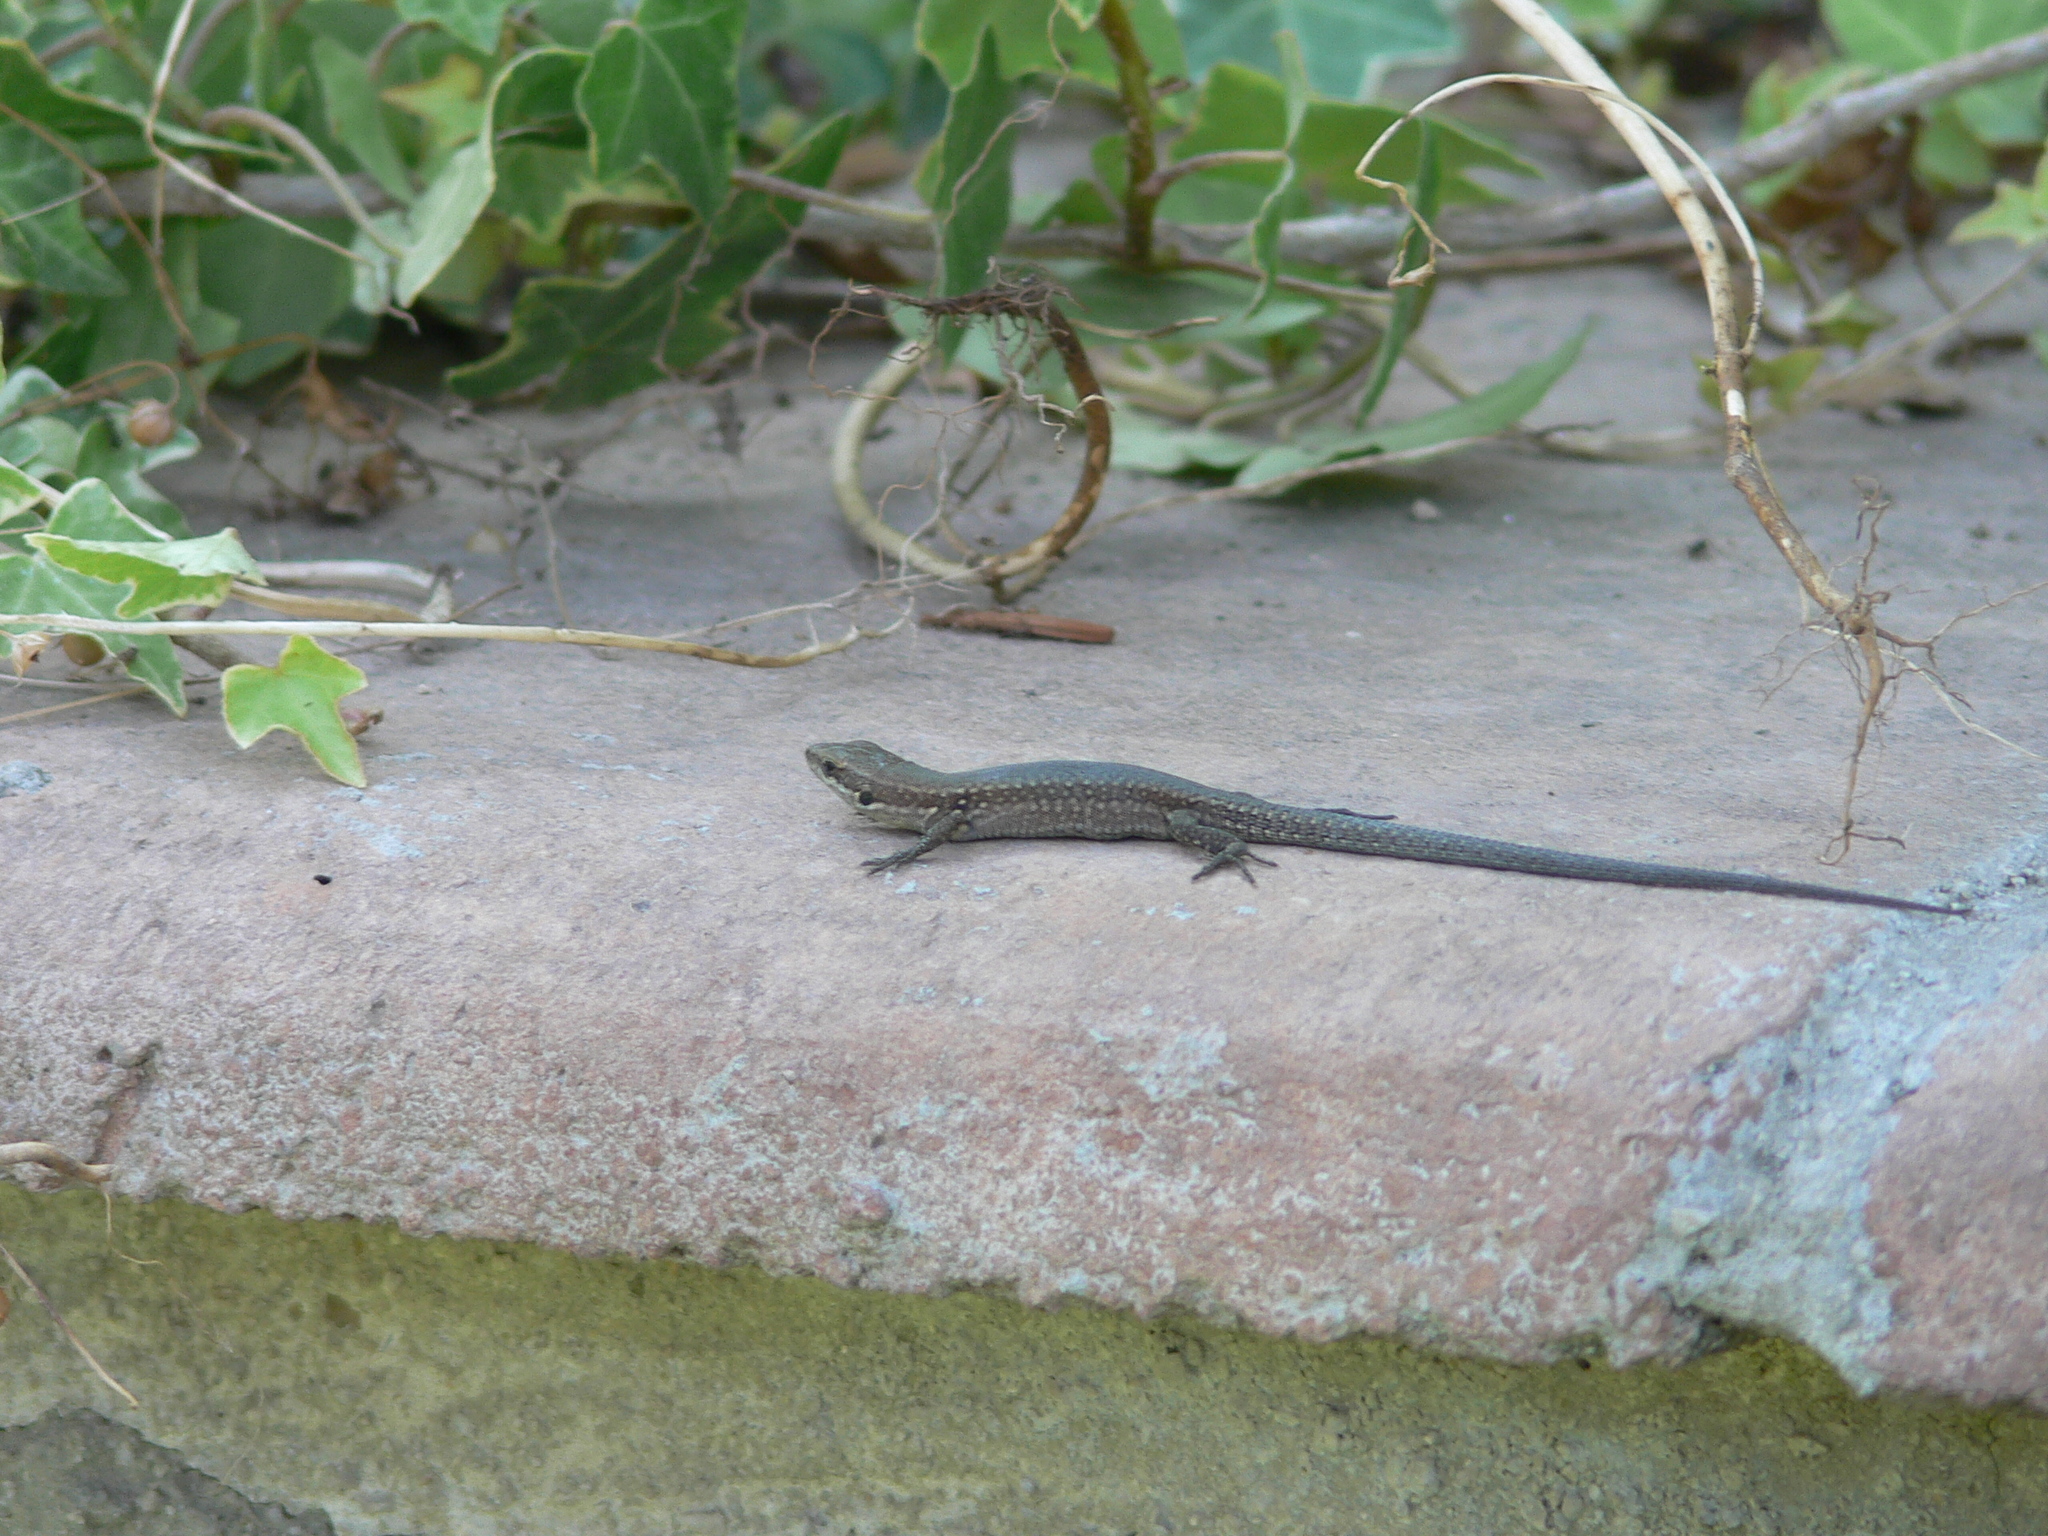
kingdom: Animalia
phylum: Chordata
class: Squamata
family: Lacertidae
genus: Podarcis
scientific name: Podarcis muralis
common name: Common wall lizard
